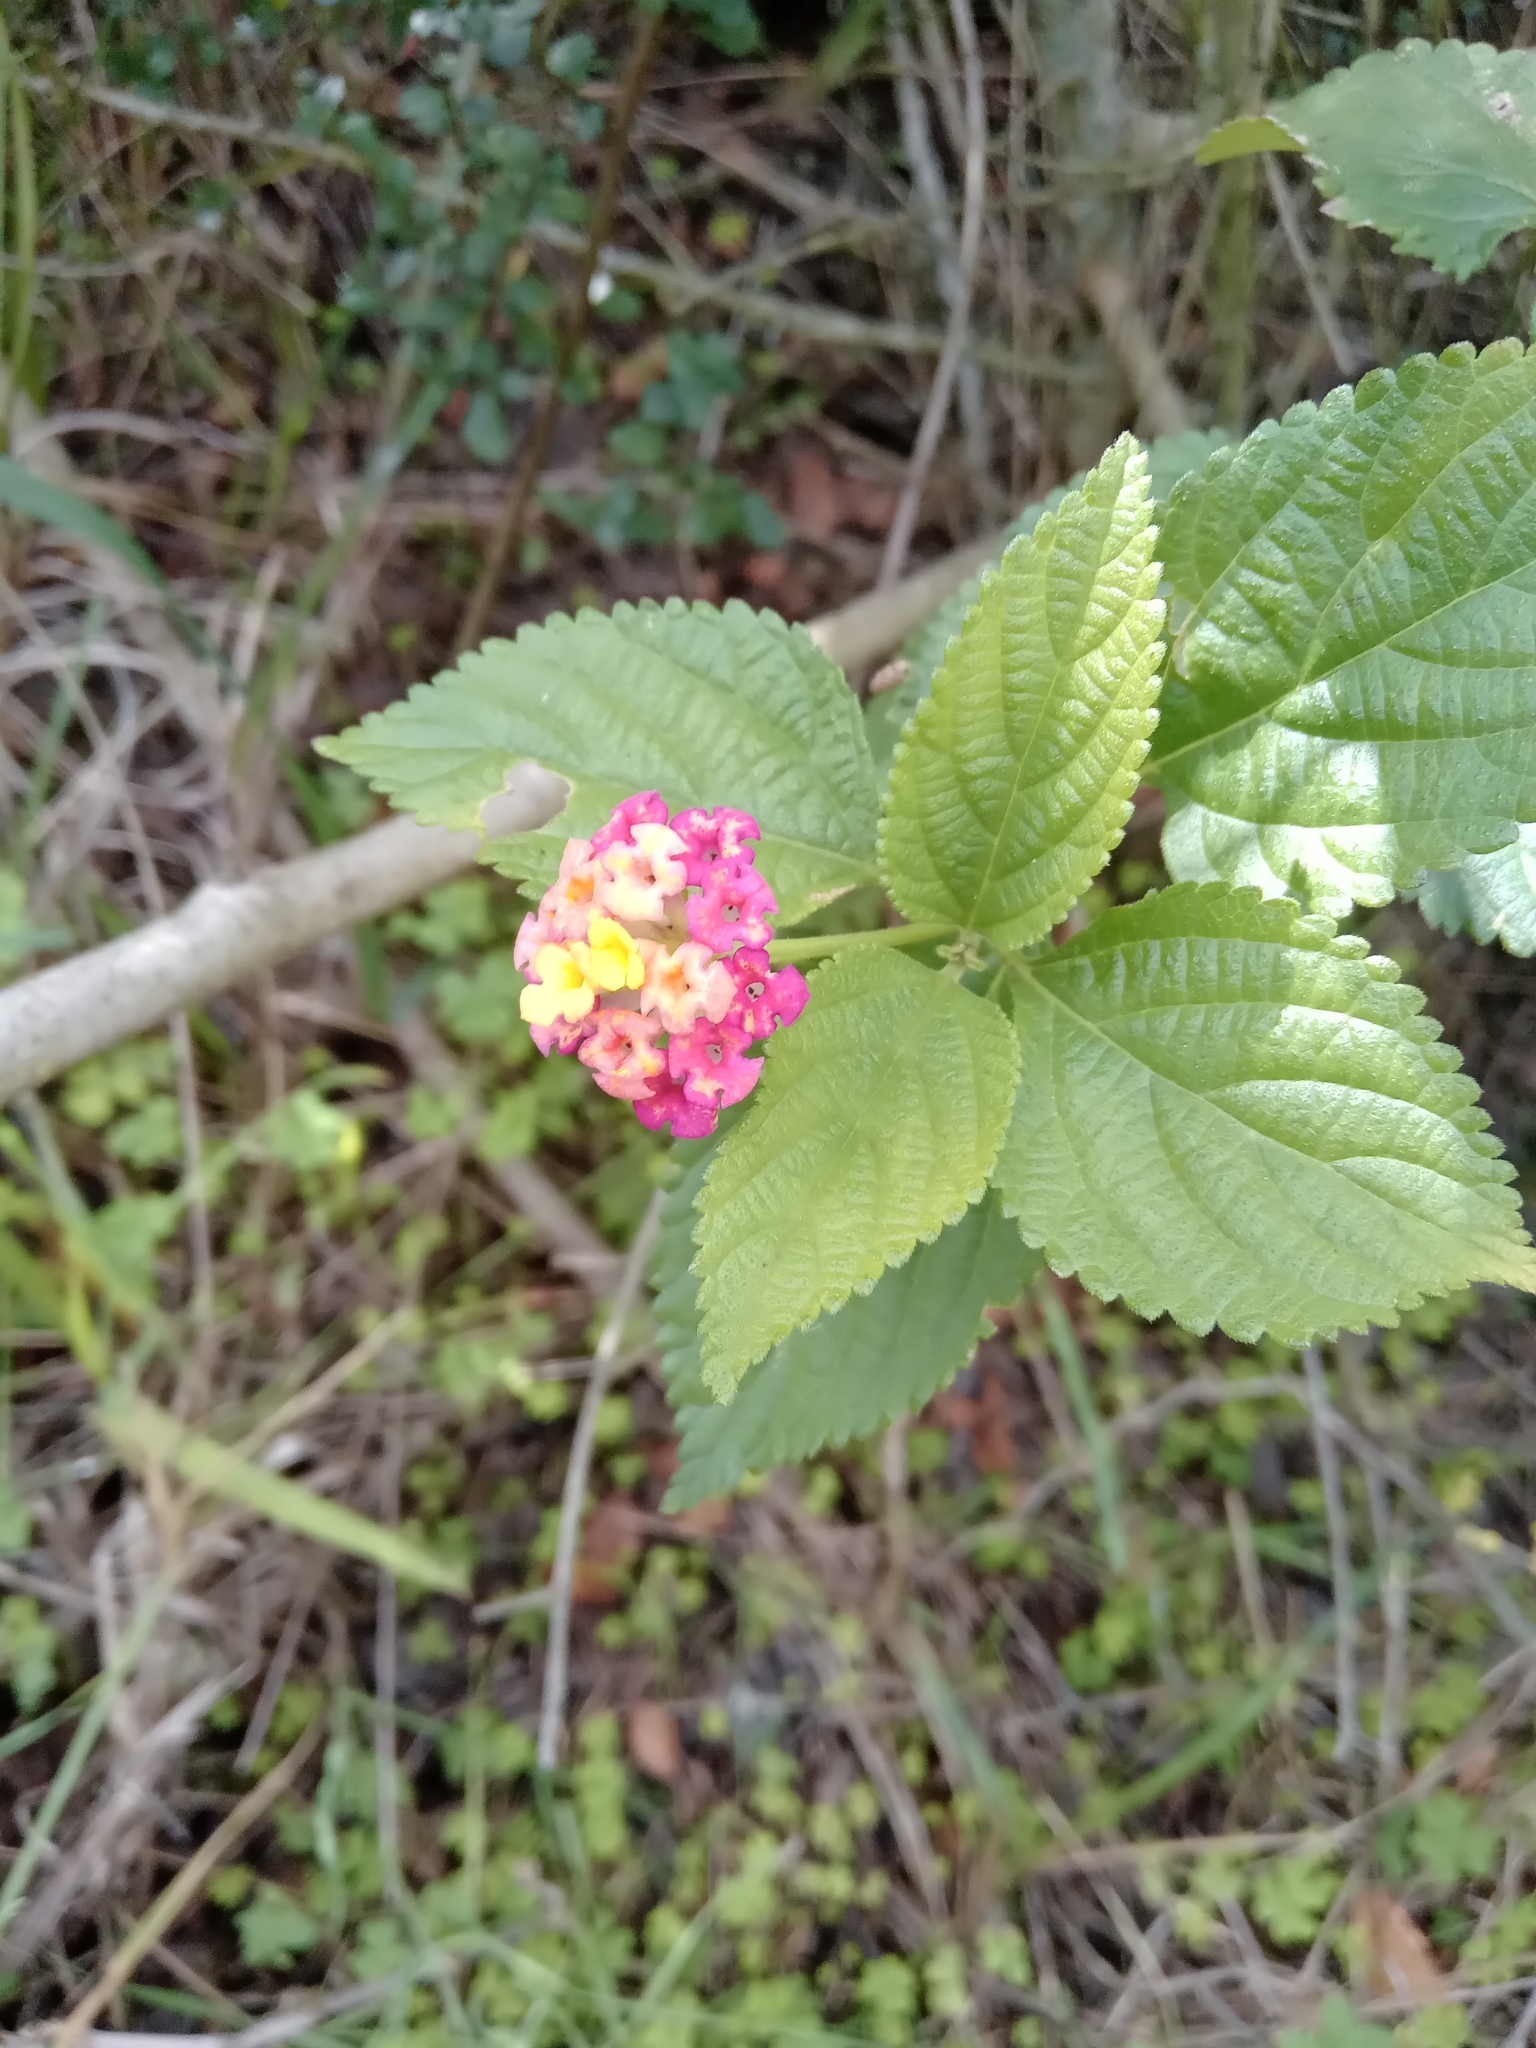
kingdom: Plantae
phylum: Tracheophyta
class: Magnoliopsida
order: Lamiales
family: Verbenaceae
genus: Lantana
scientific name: Lantana camara
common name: Lantana
